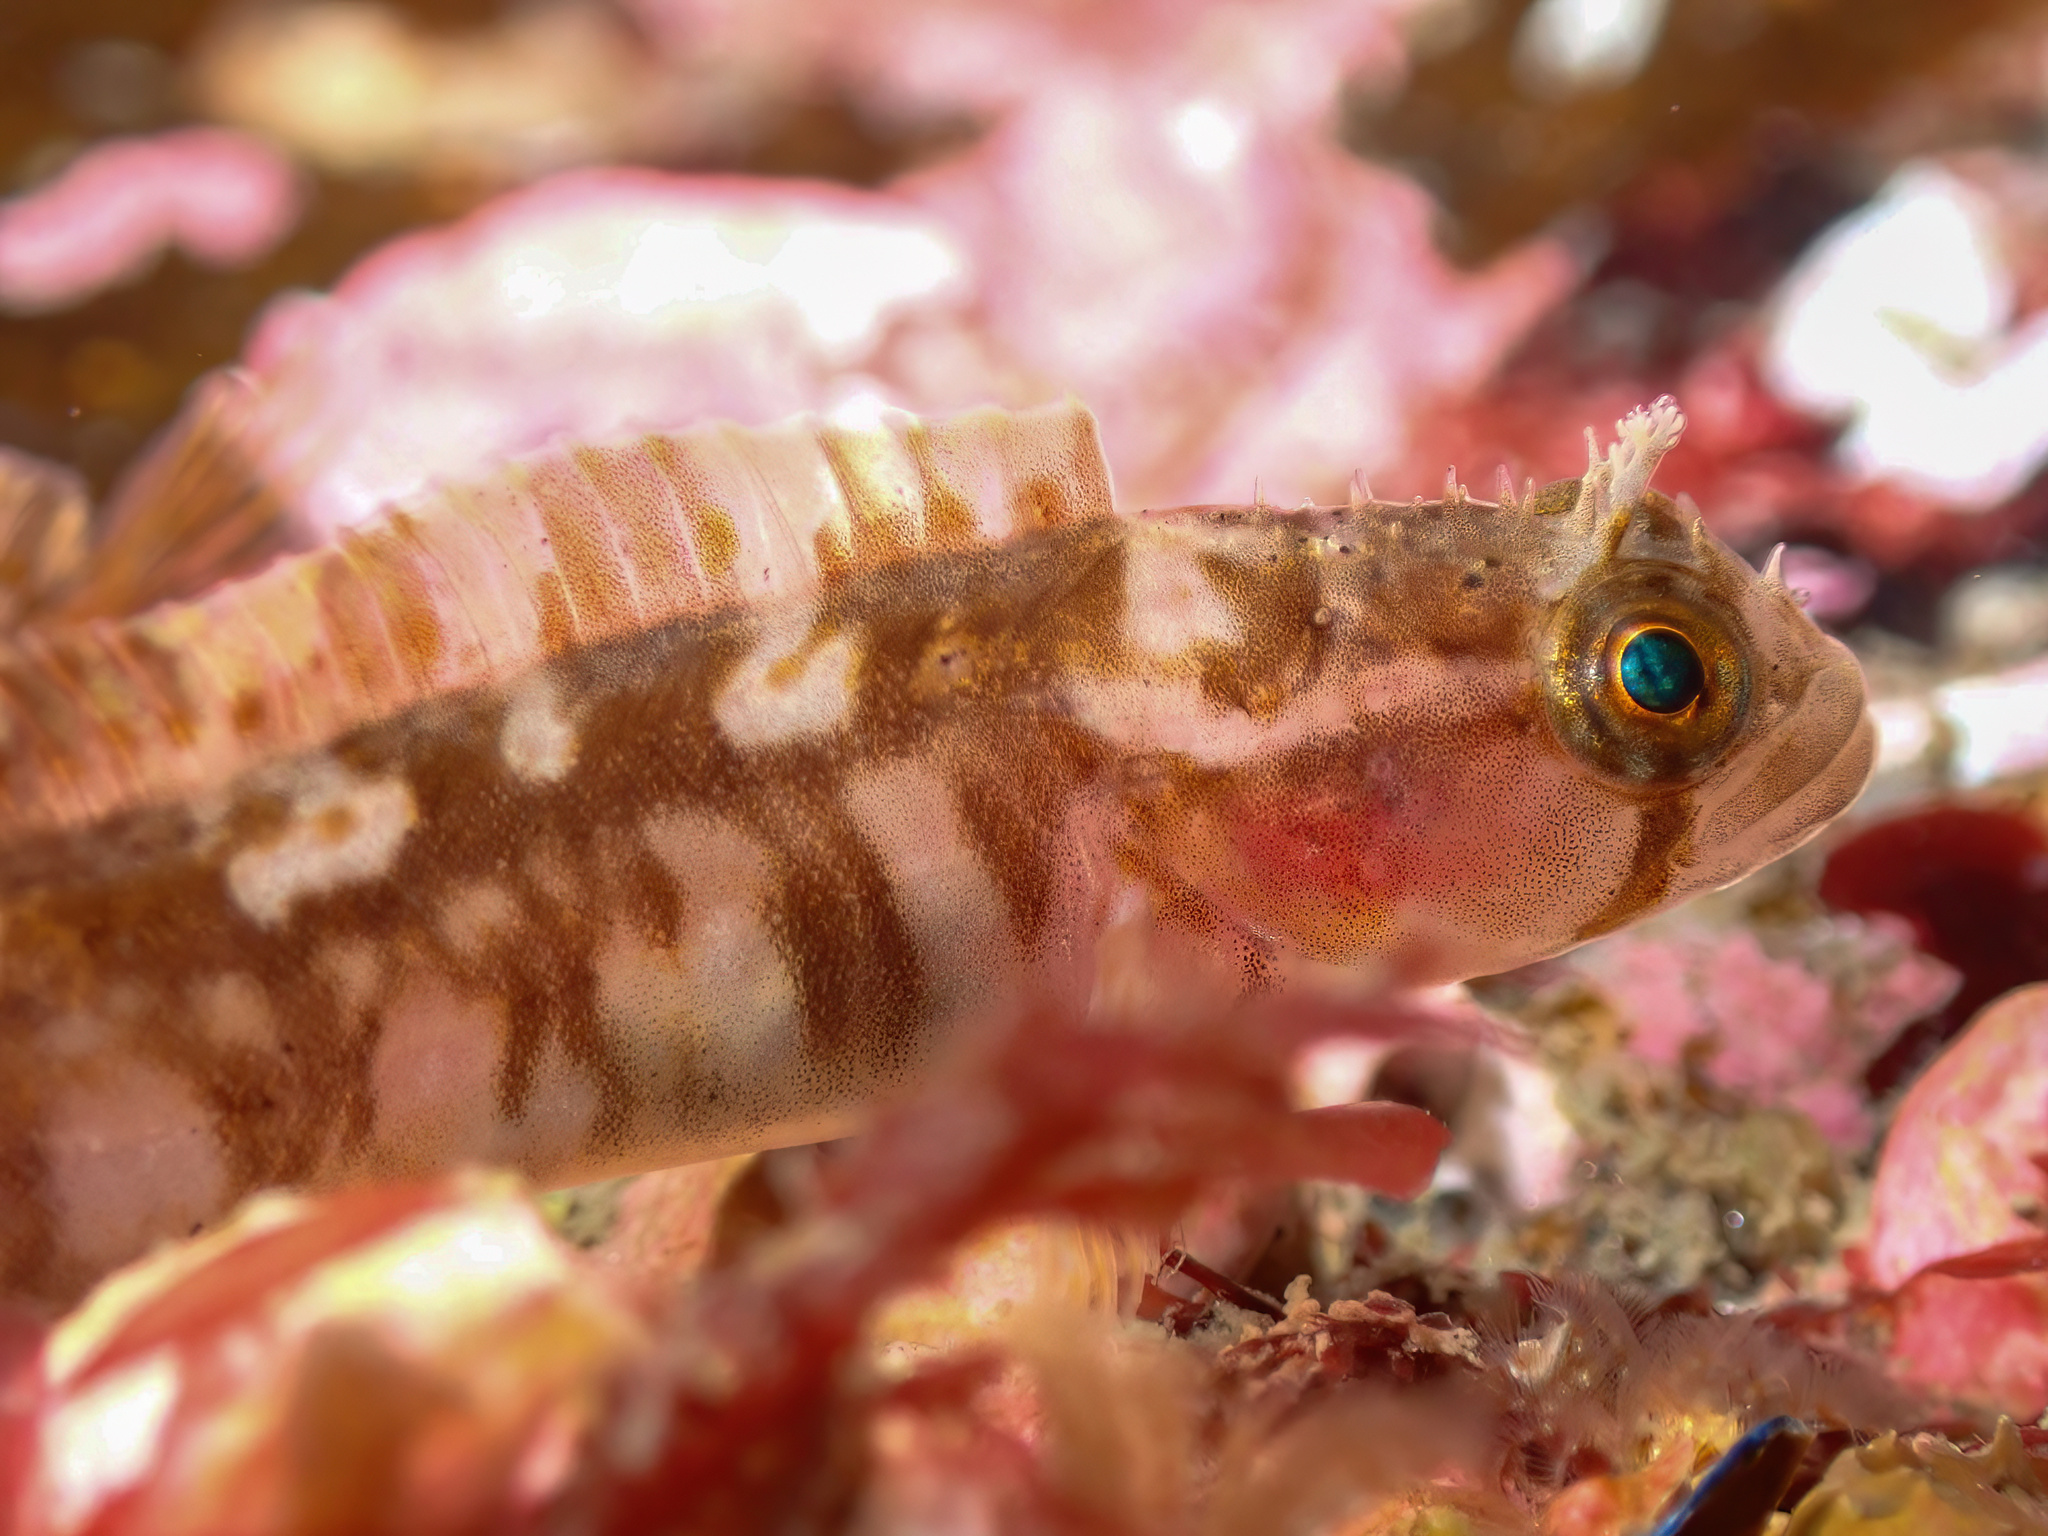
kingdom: Animalia
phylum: Chordata
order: Perciformes
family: Stichaeidae
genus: Chirolophis
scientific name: Chirolophis ascanii
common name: Yarrell's blenny
